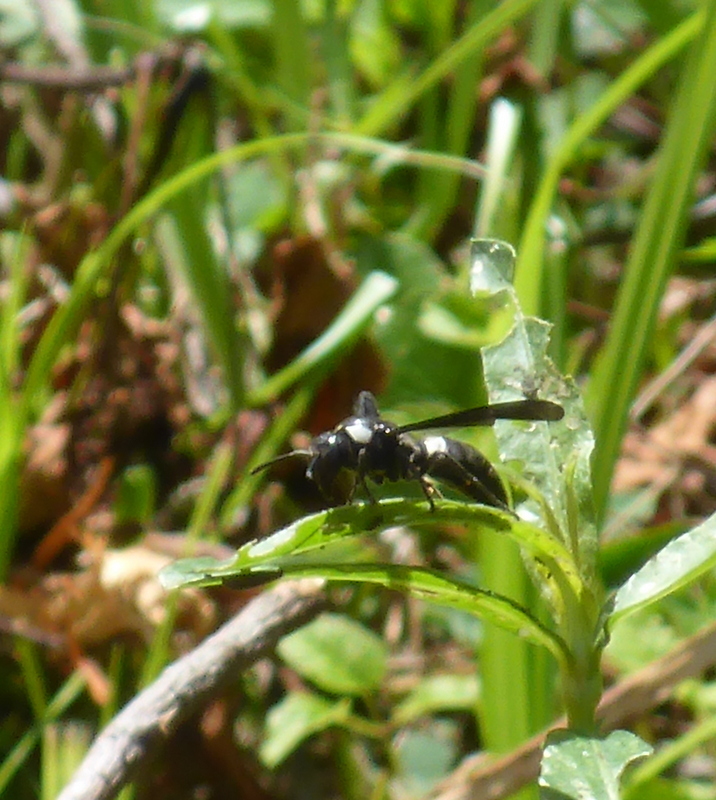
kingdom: Animalia
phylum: Arthropoda
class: Insecta
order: Hymenoptera
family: Eumenidae
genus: Monobia
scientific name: Monobia quadridens
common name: Four-toothed mason wasp
